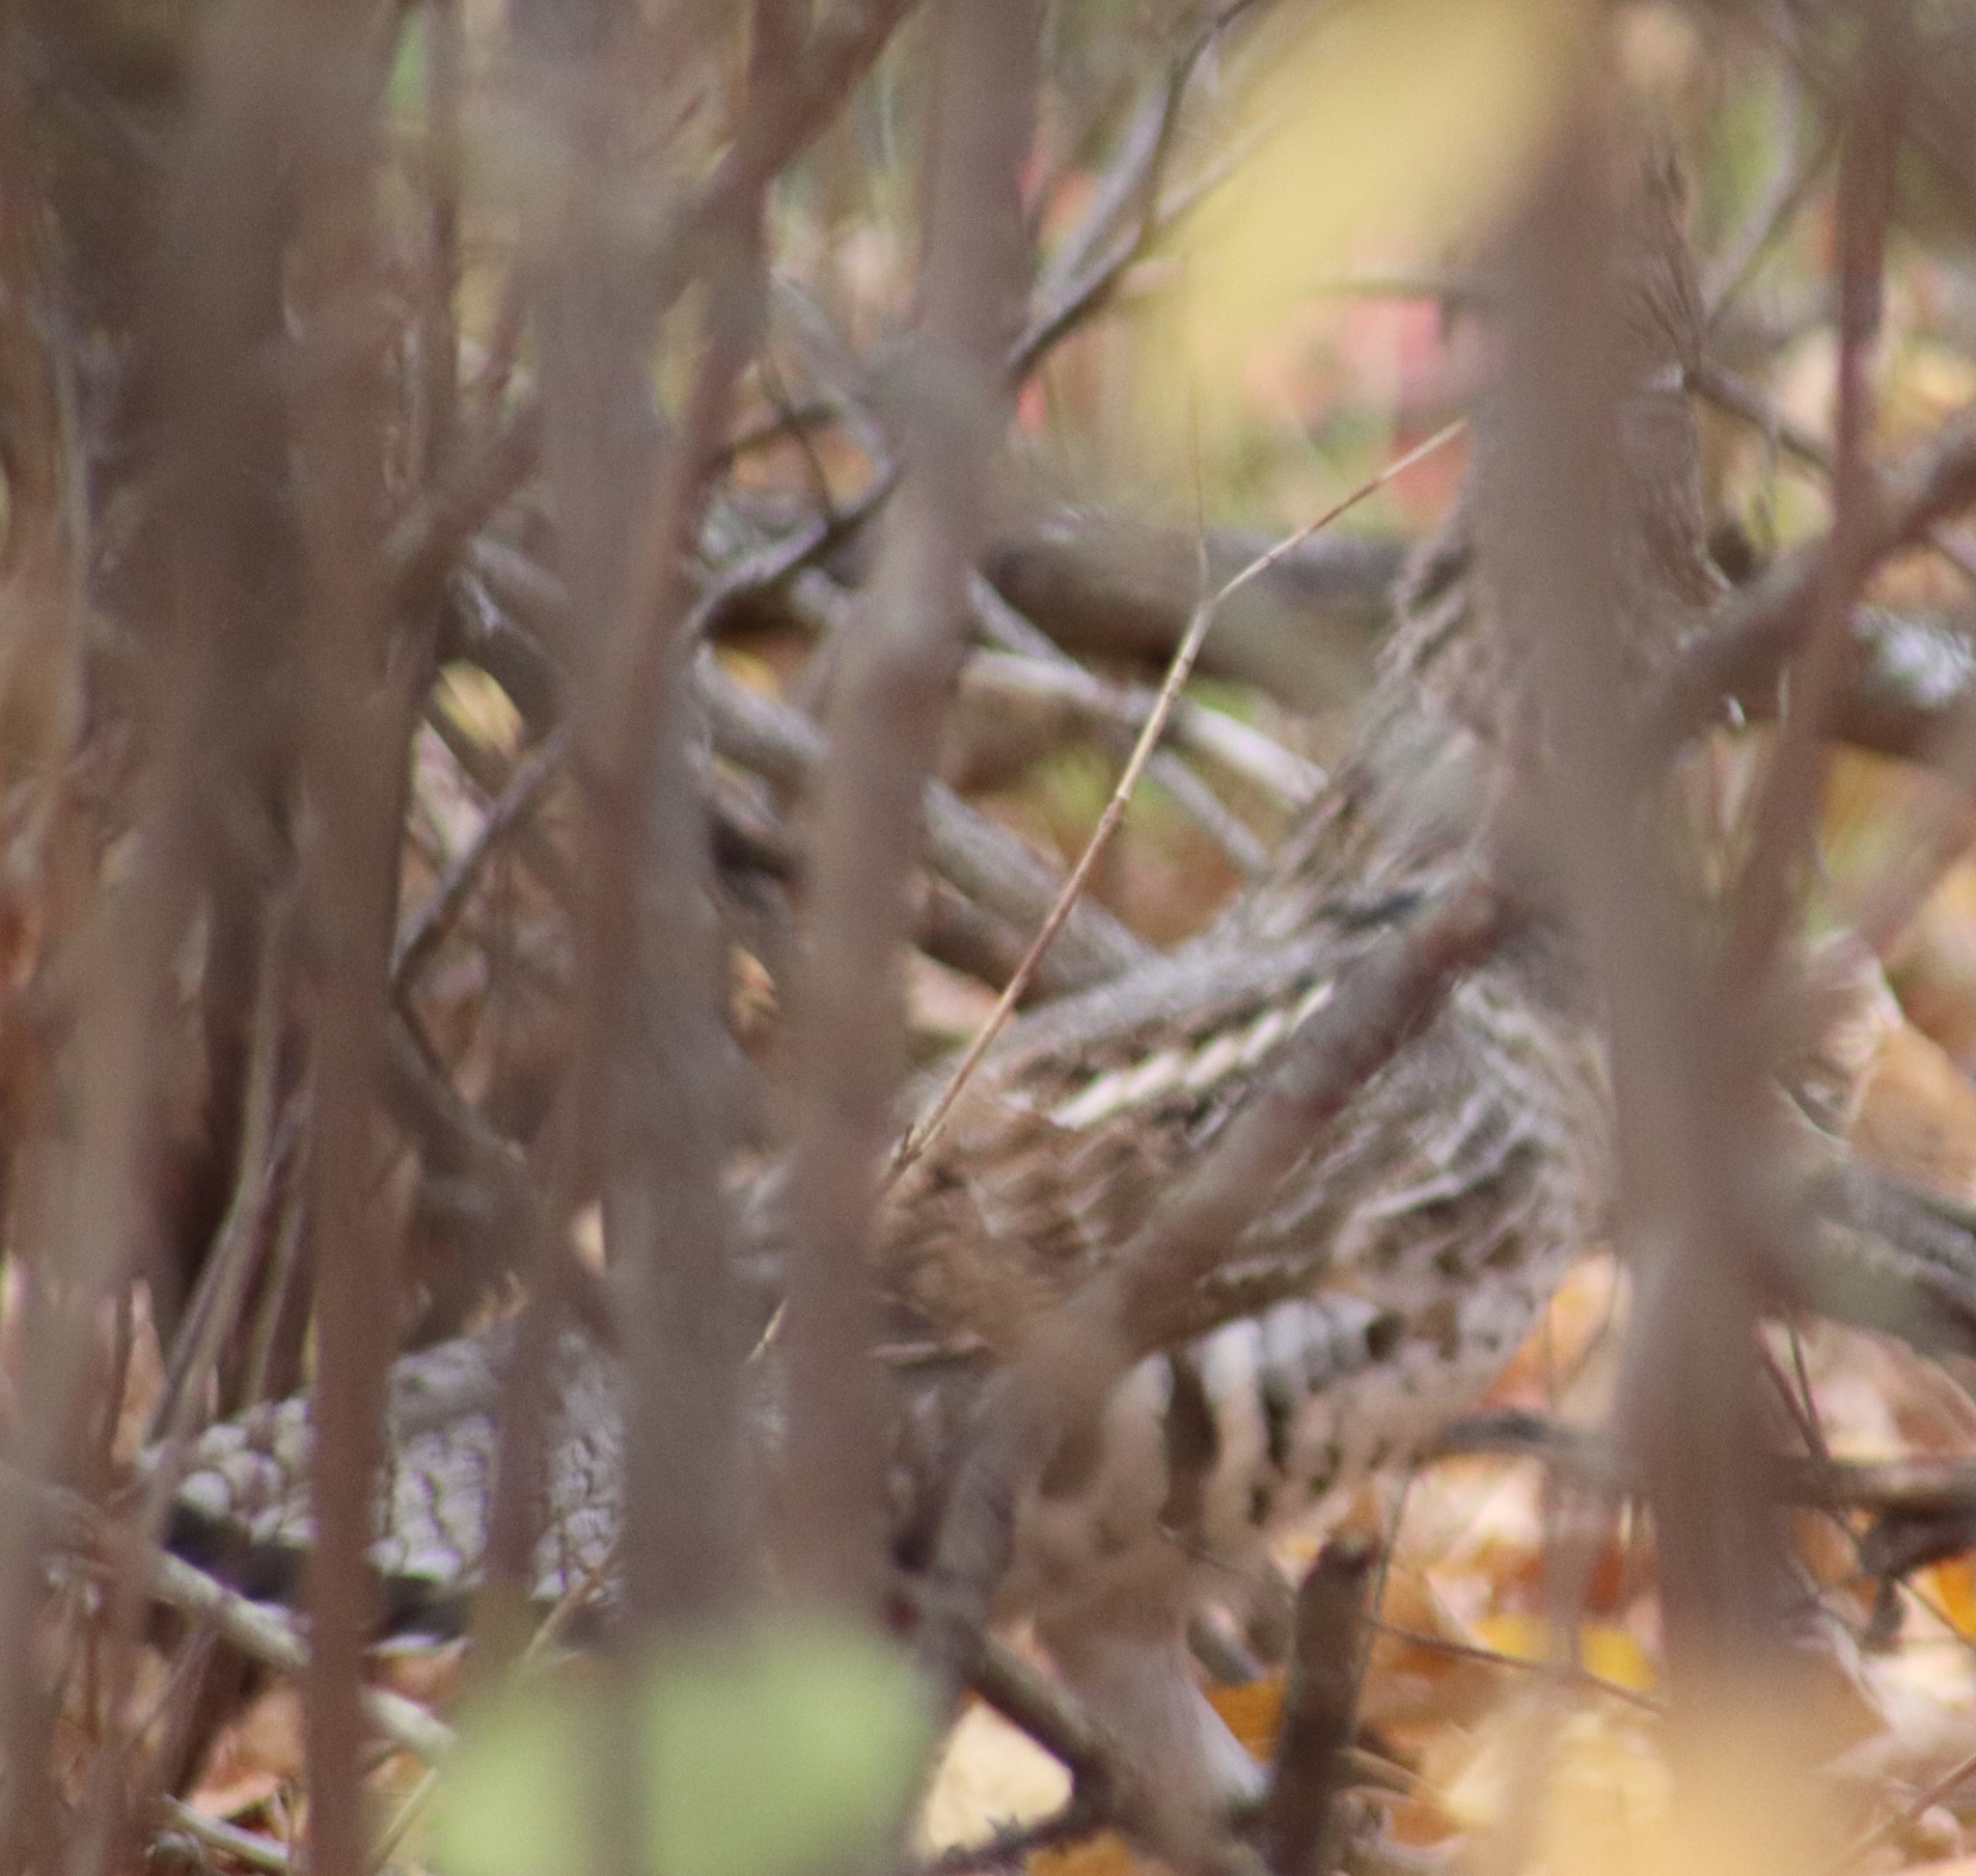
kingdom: Animalia
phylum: Chordata
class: Aves
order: Galliformes
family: Phasianidae
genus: Bonasa
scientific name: Bonasa umbellus
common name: Ruffed grouse
